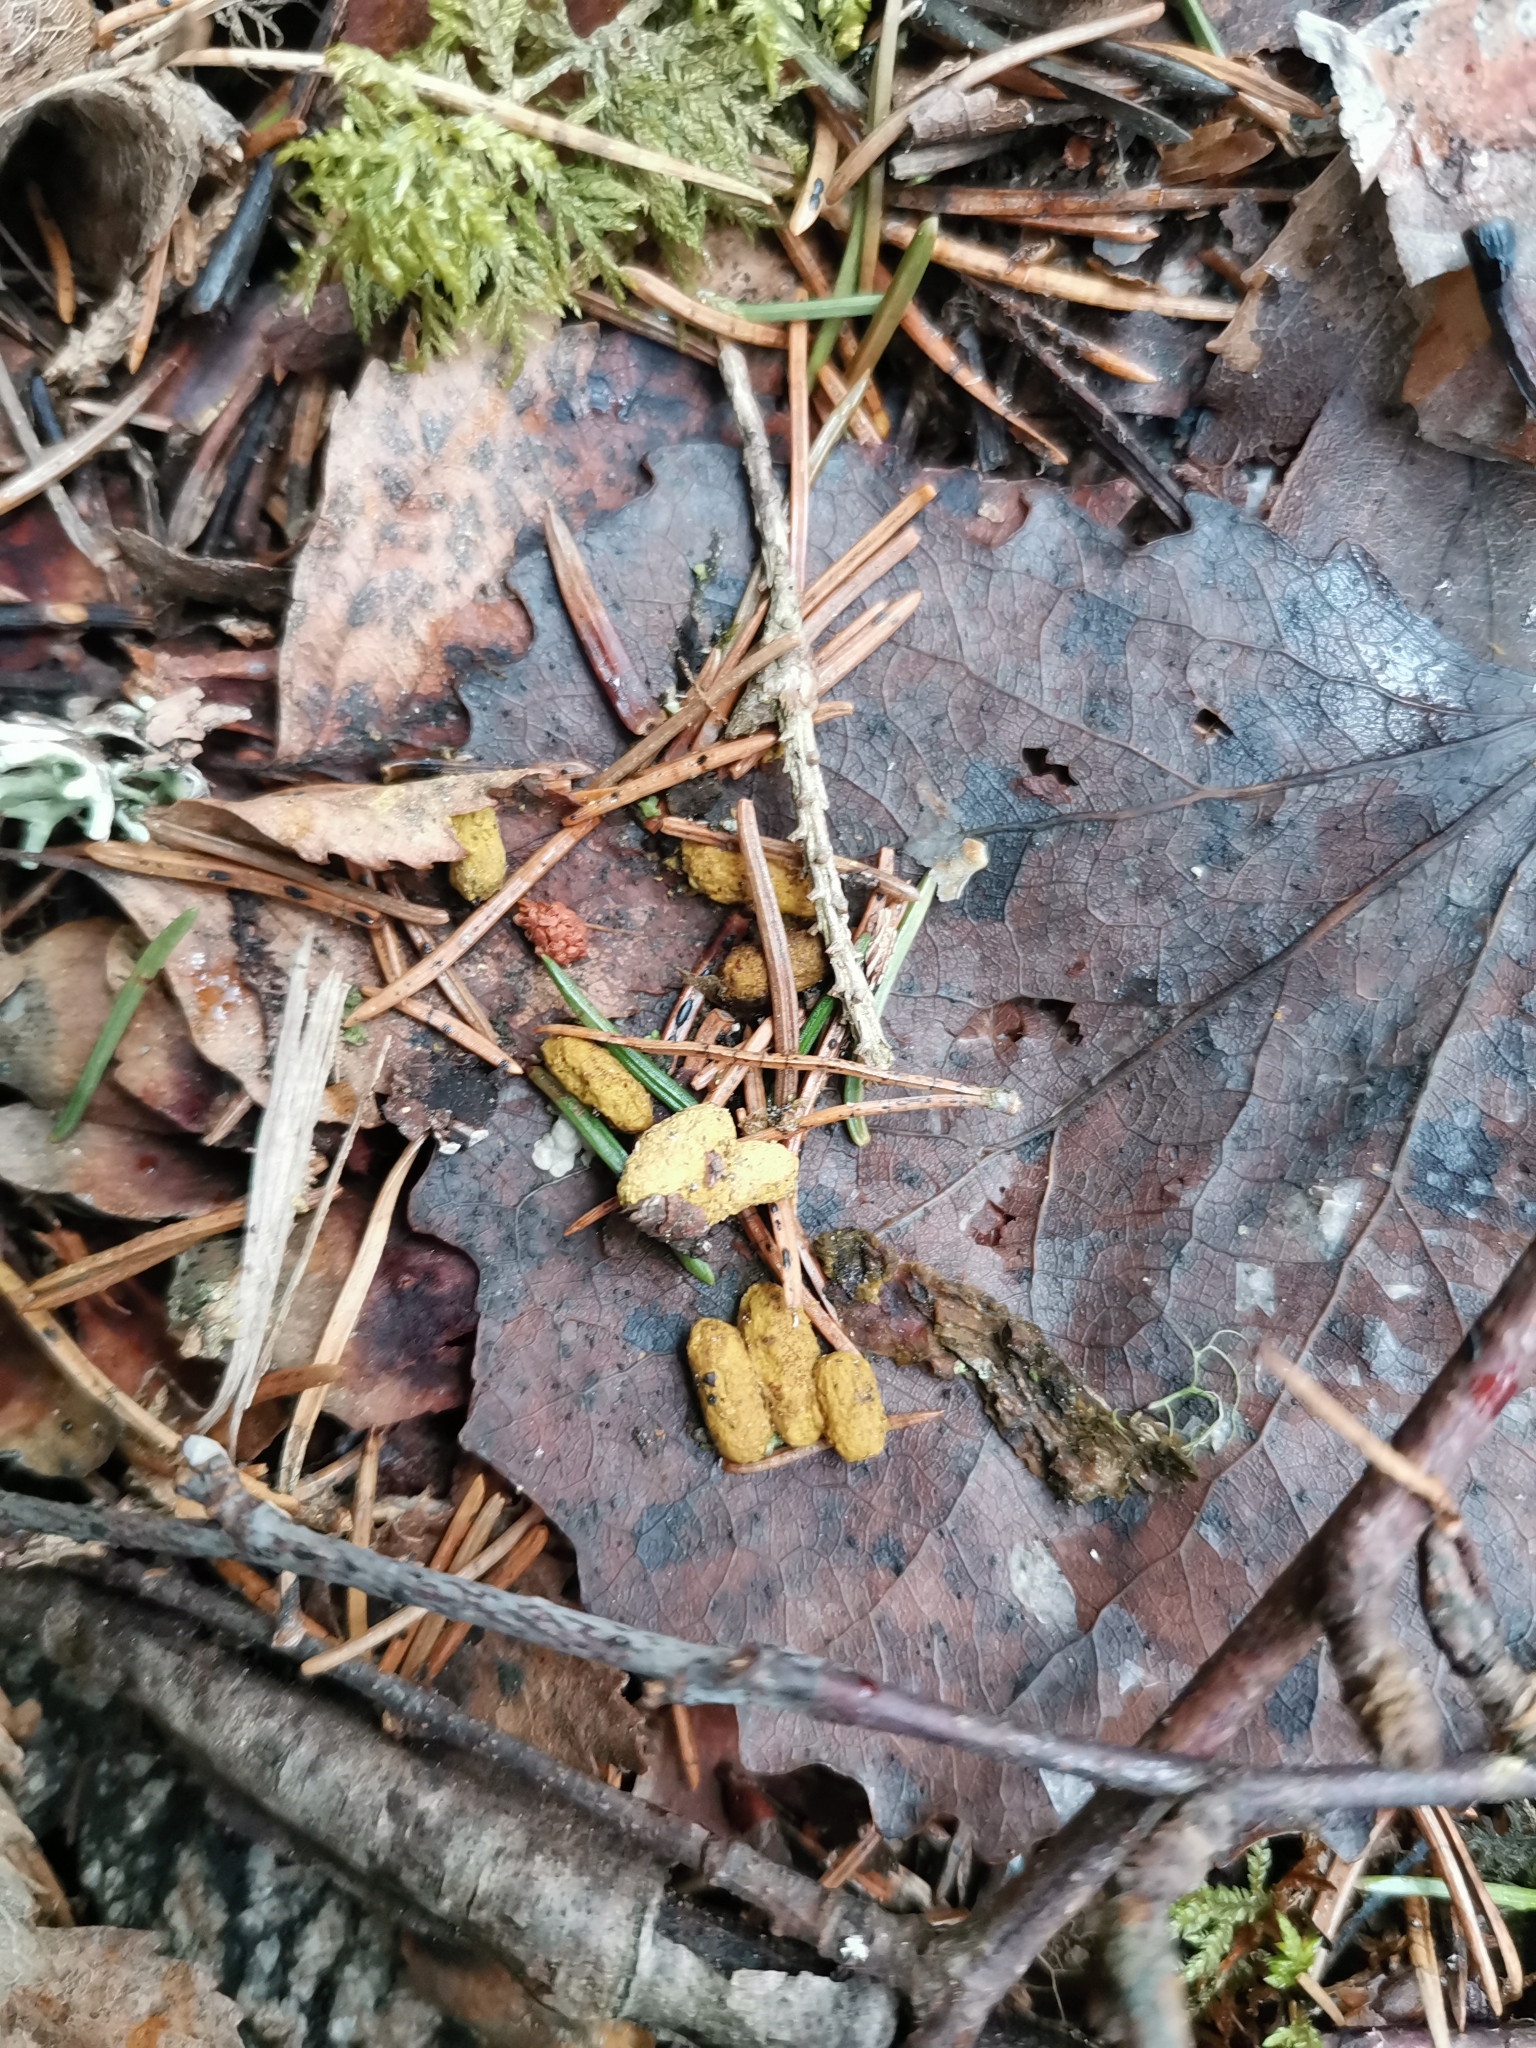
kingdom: Animalia
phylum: Chordata
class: Mammalia
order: Rodentia
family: Sciuridae
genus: Pteromys
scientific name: Pteromys volans
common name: Siberian flying squirrel
